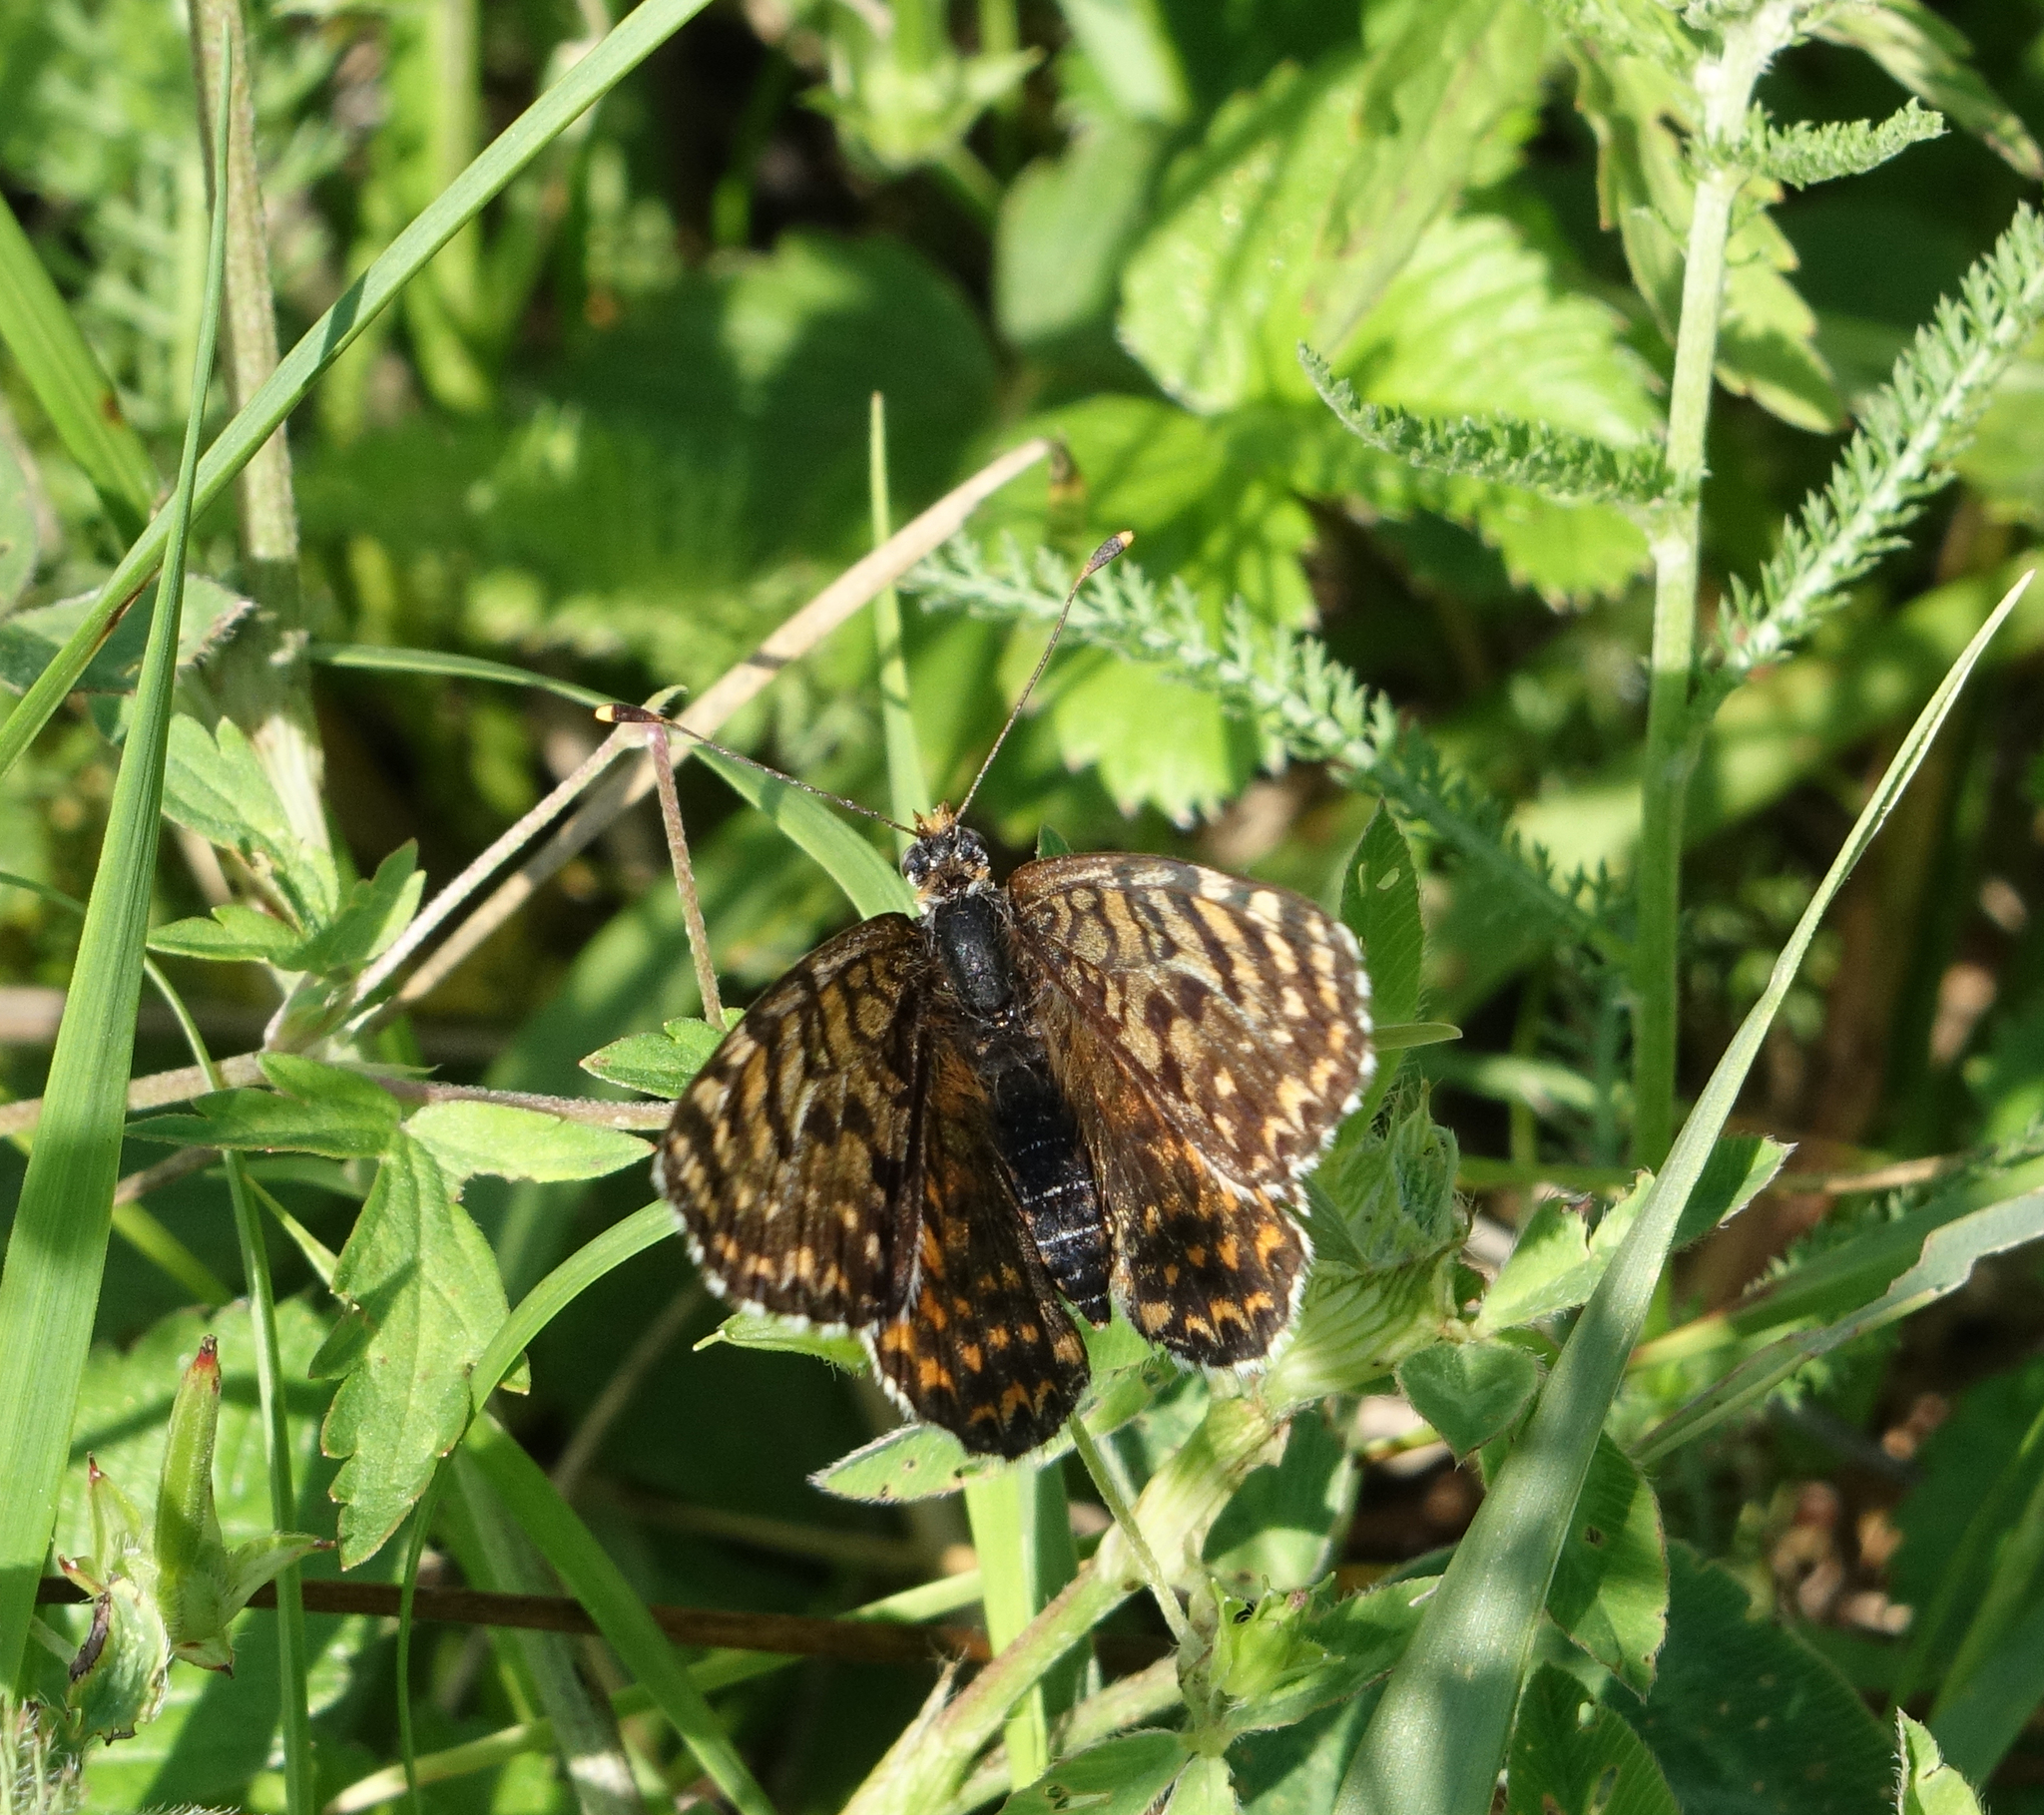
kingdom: Animalia
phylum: Arthropoda
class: Insecta
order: Lepidoptera
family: Nymphalidae
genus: Melitaea
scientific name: Melitaea didyma
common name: Spotted fritillary
